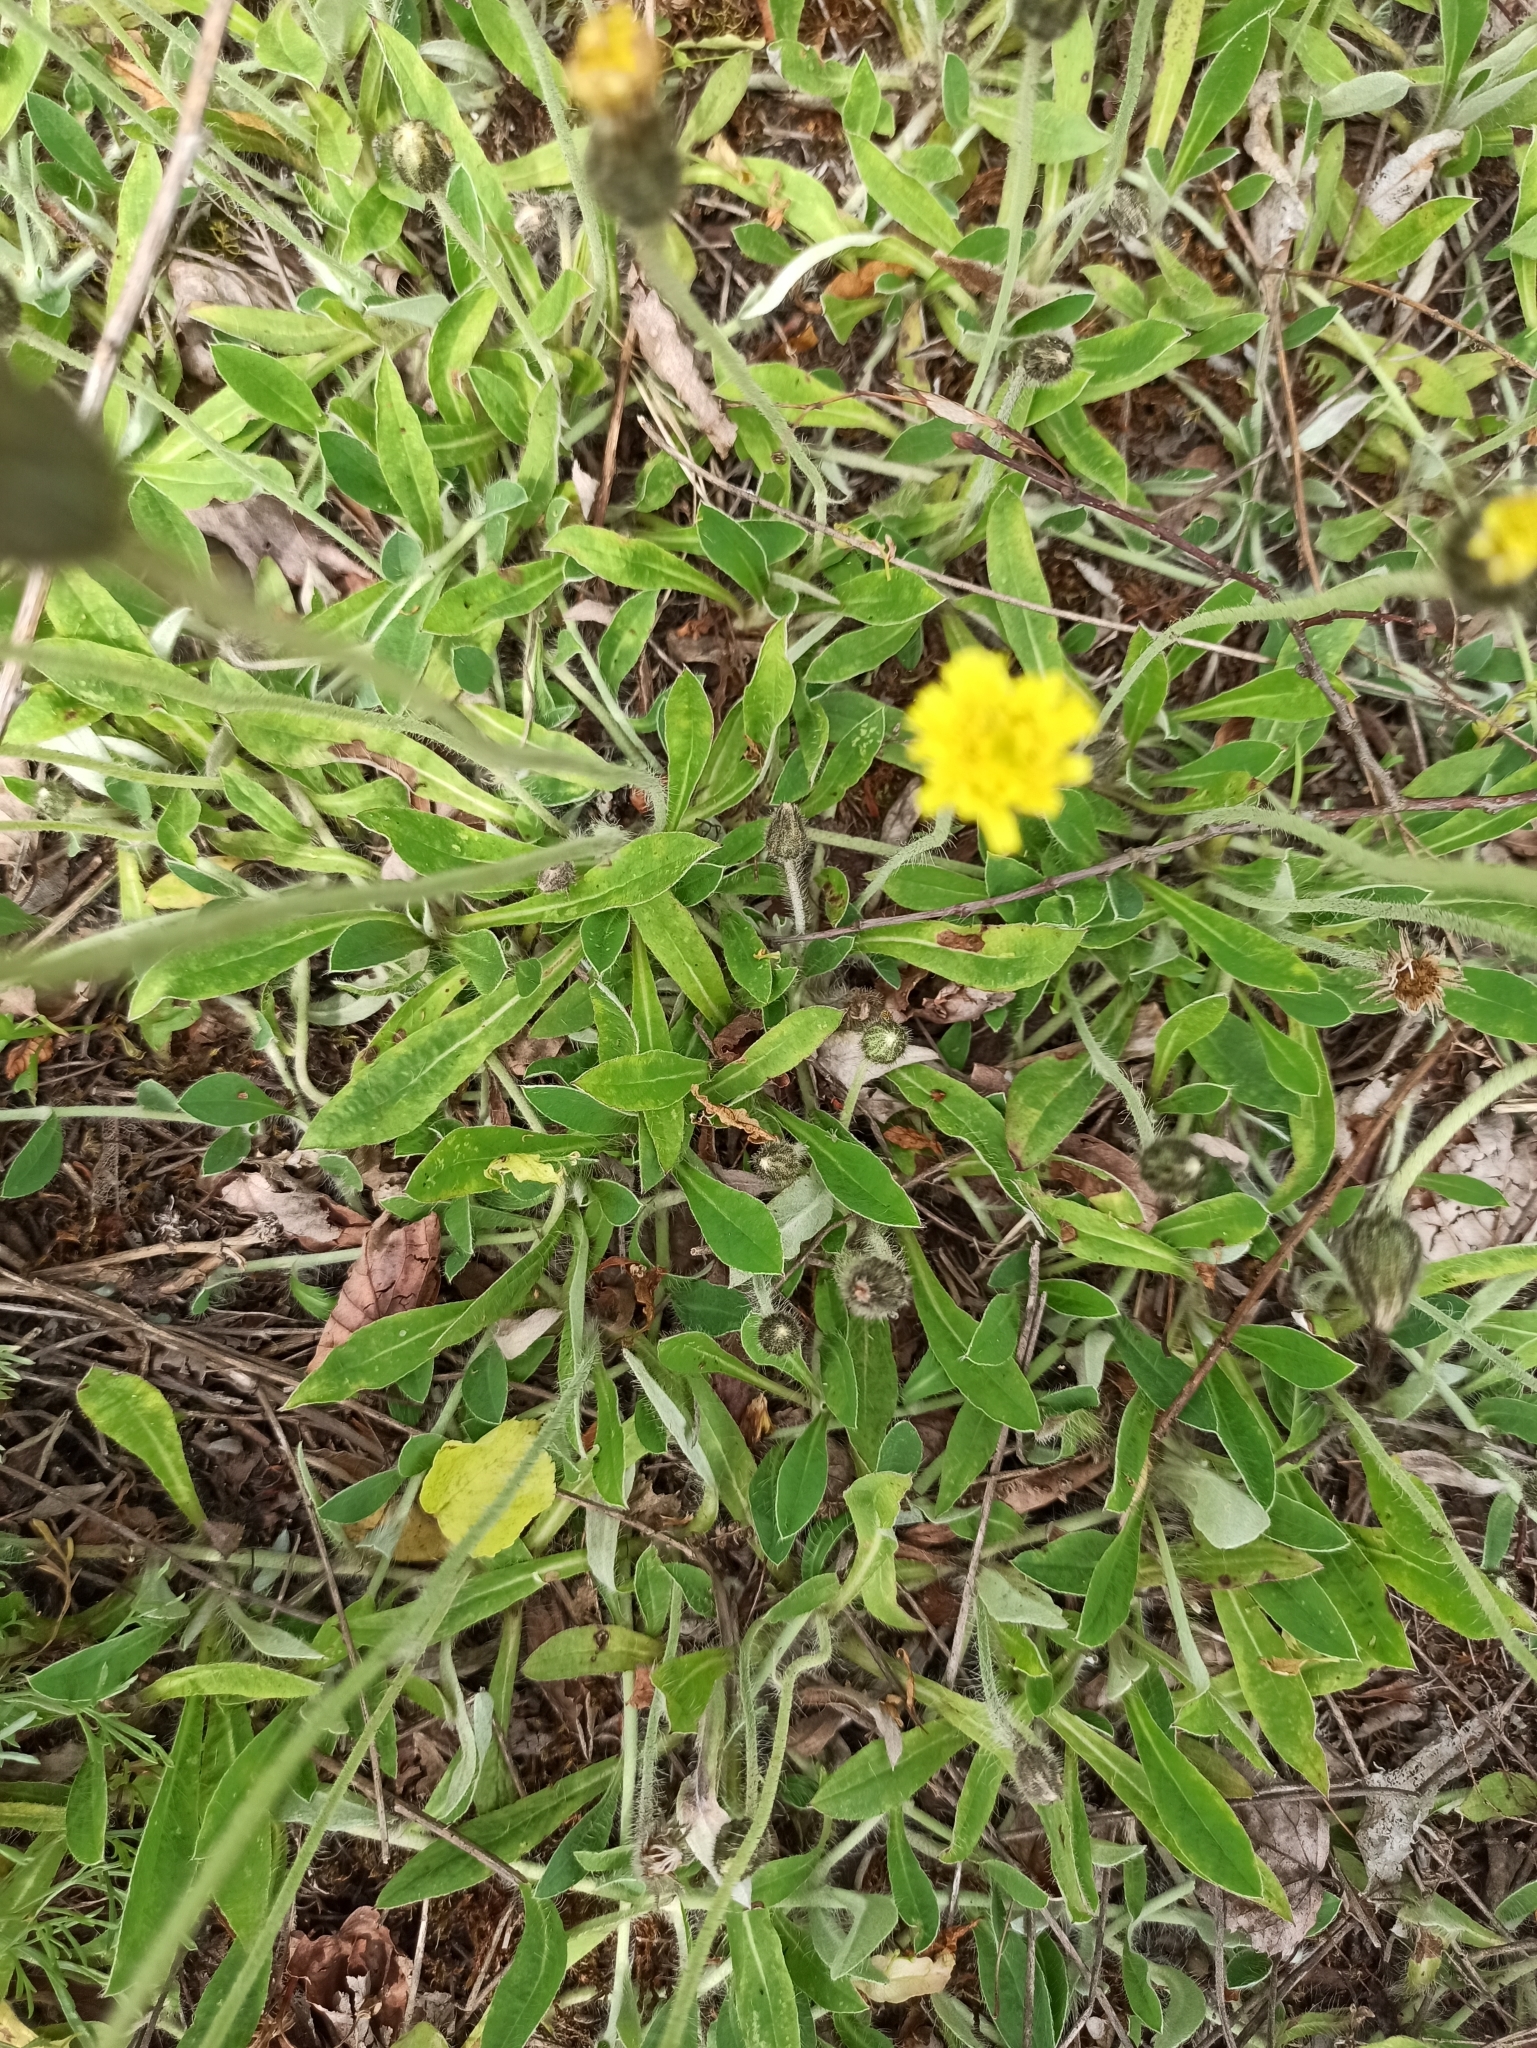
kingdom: Plantae
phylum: Tracheophyta
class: Magnoliopsida
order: Asterales
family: Asteraceae
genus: Pilosella
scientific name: Pilosella officinarum
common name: Mouse-ear hawkweed
